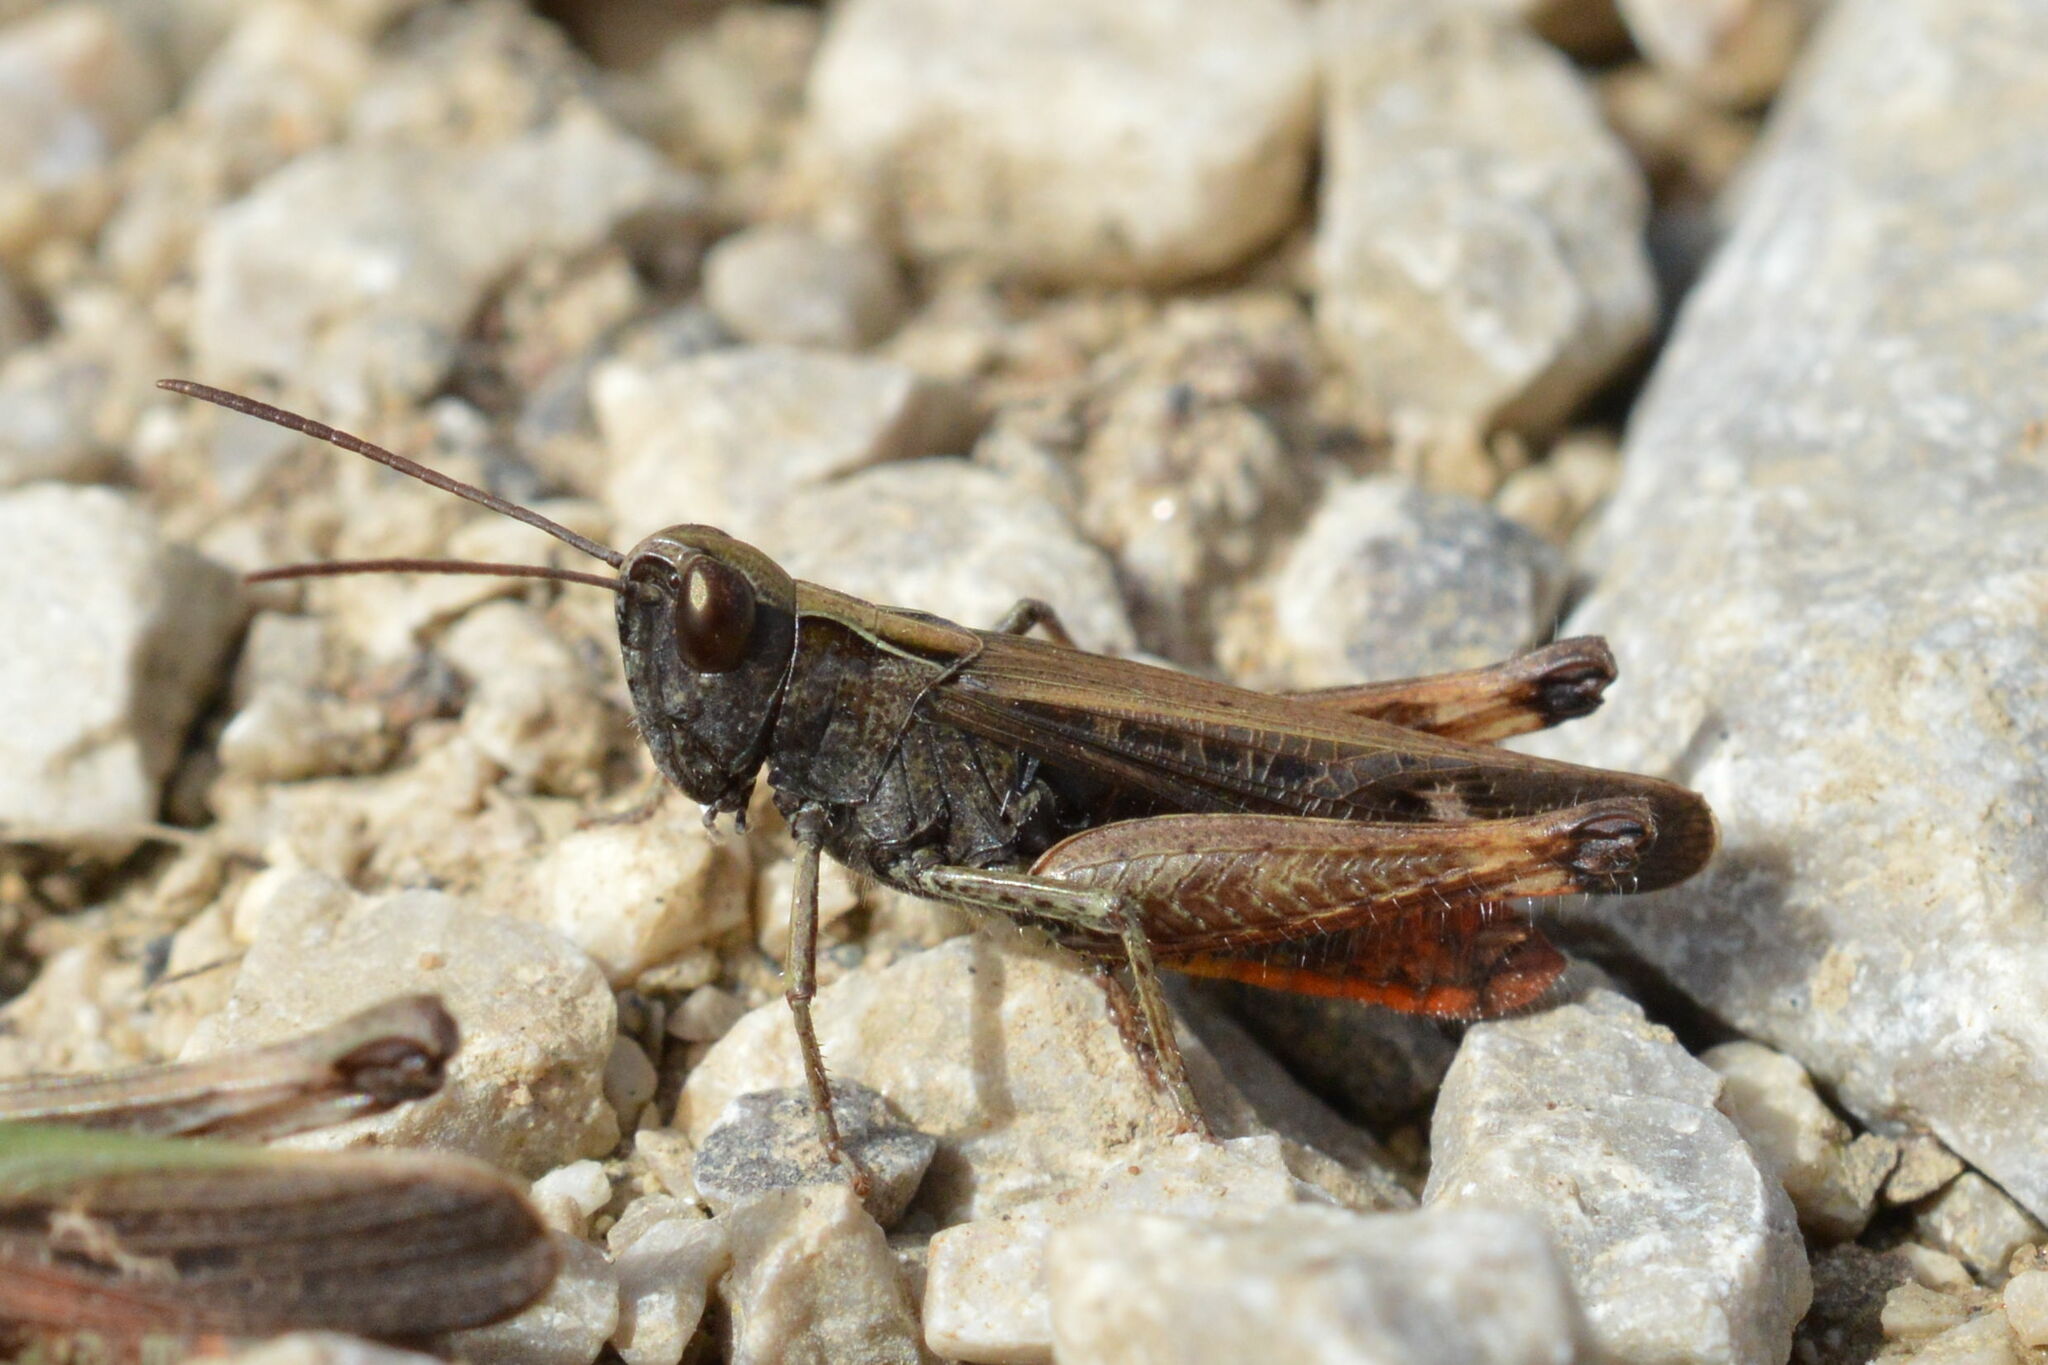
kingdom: Animalia
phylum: Arthropoda
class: Insecta
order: Orthoptera
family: Acrididae
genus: Omocestus
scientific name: Omocestus rufipes
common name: Woodland grasshopper
